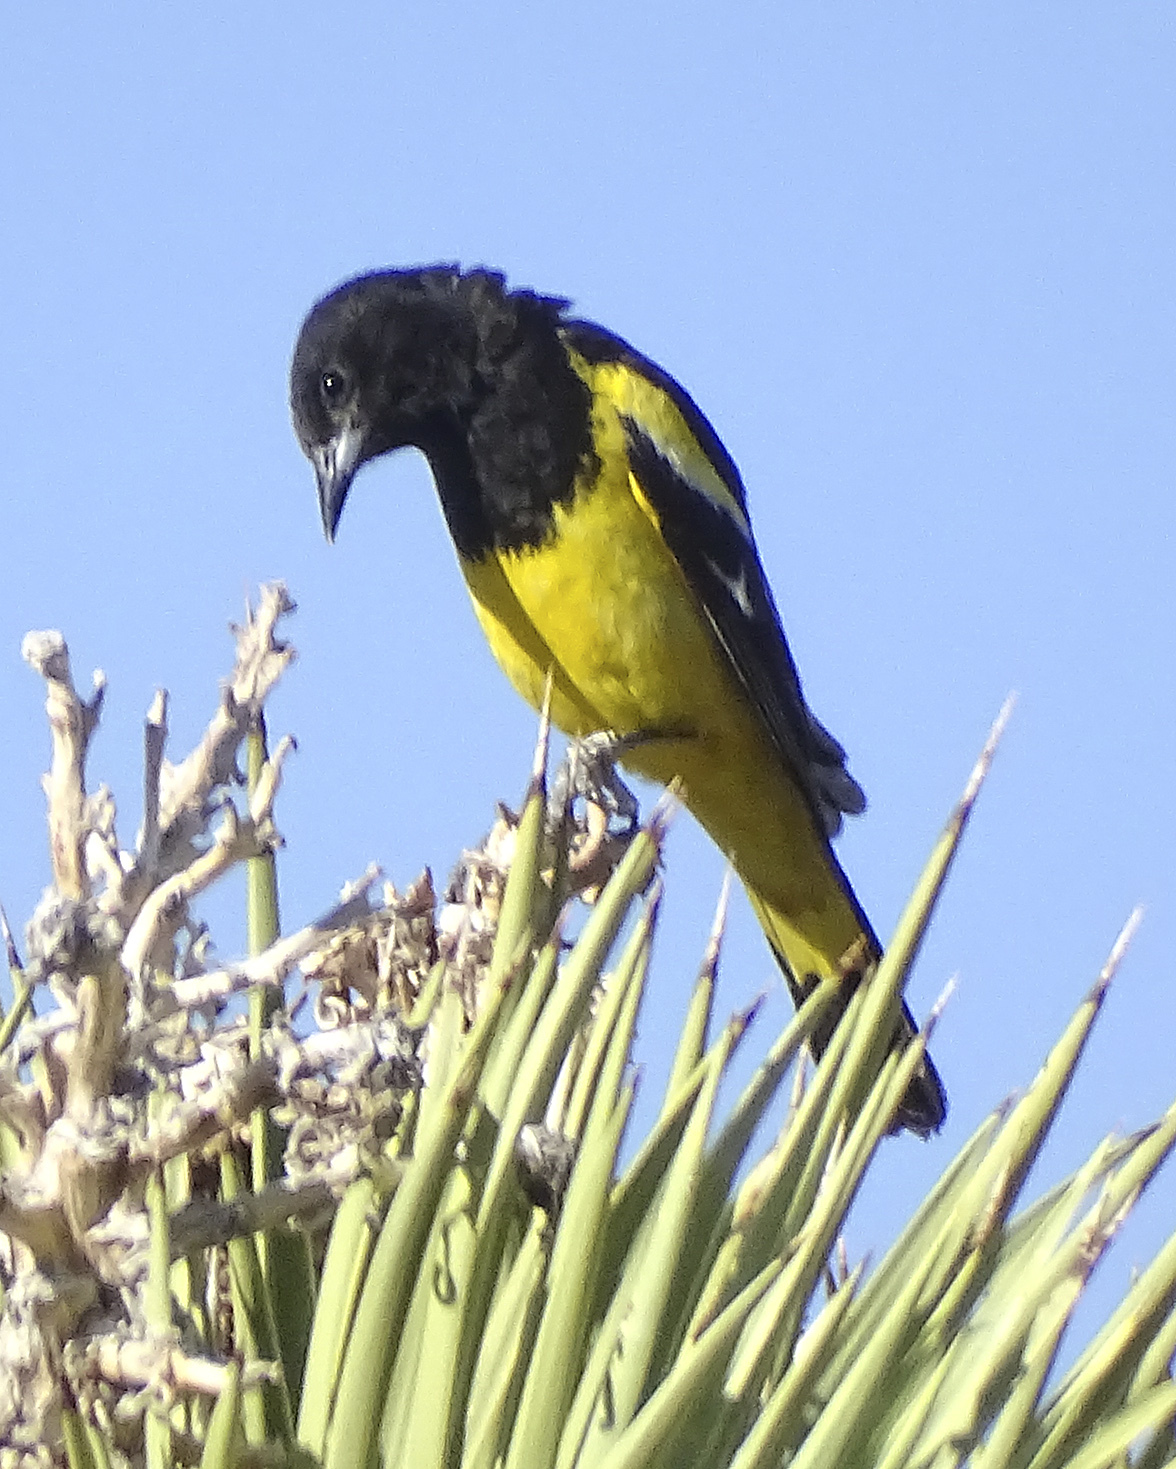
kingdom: Animalia
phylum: Chordata
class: Aves
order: Passeriformes
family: Icteridae
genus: Icterus
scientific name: Icterus parisorum
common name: Scott's oriole
